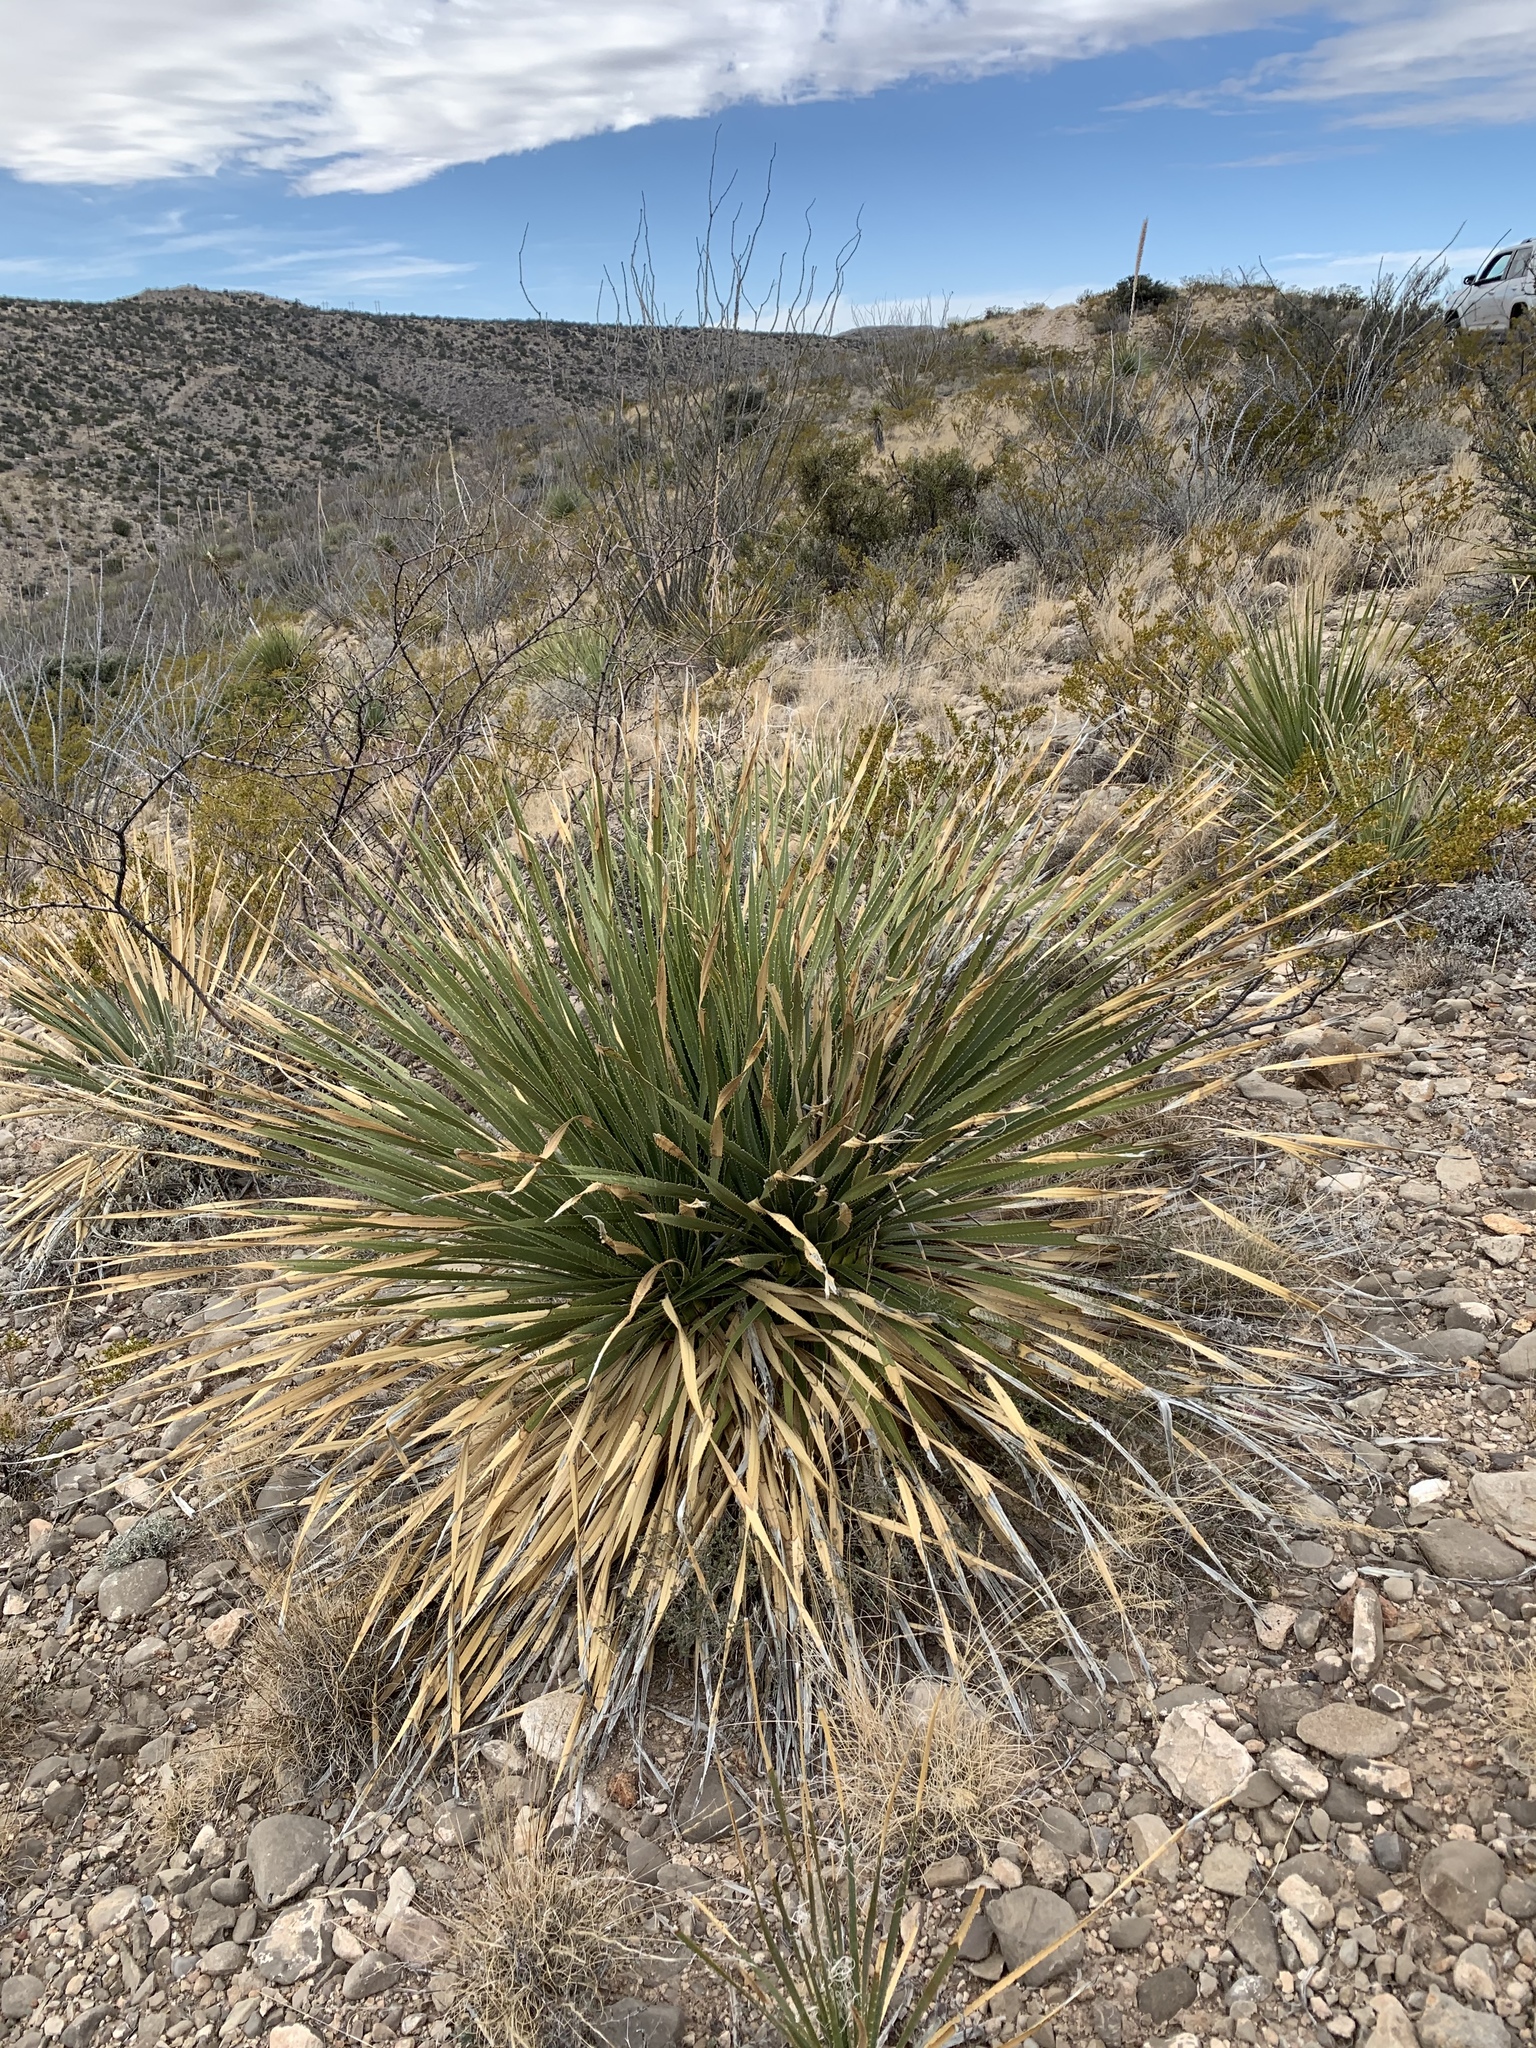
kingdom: Plantae
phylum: Tracheophyta
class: Liliopsida
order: Asparagales
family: Asparagaceae
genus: Dasylirion
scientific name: Dasylirion wheeleri
